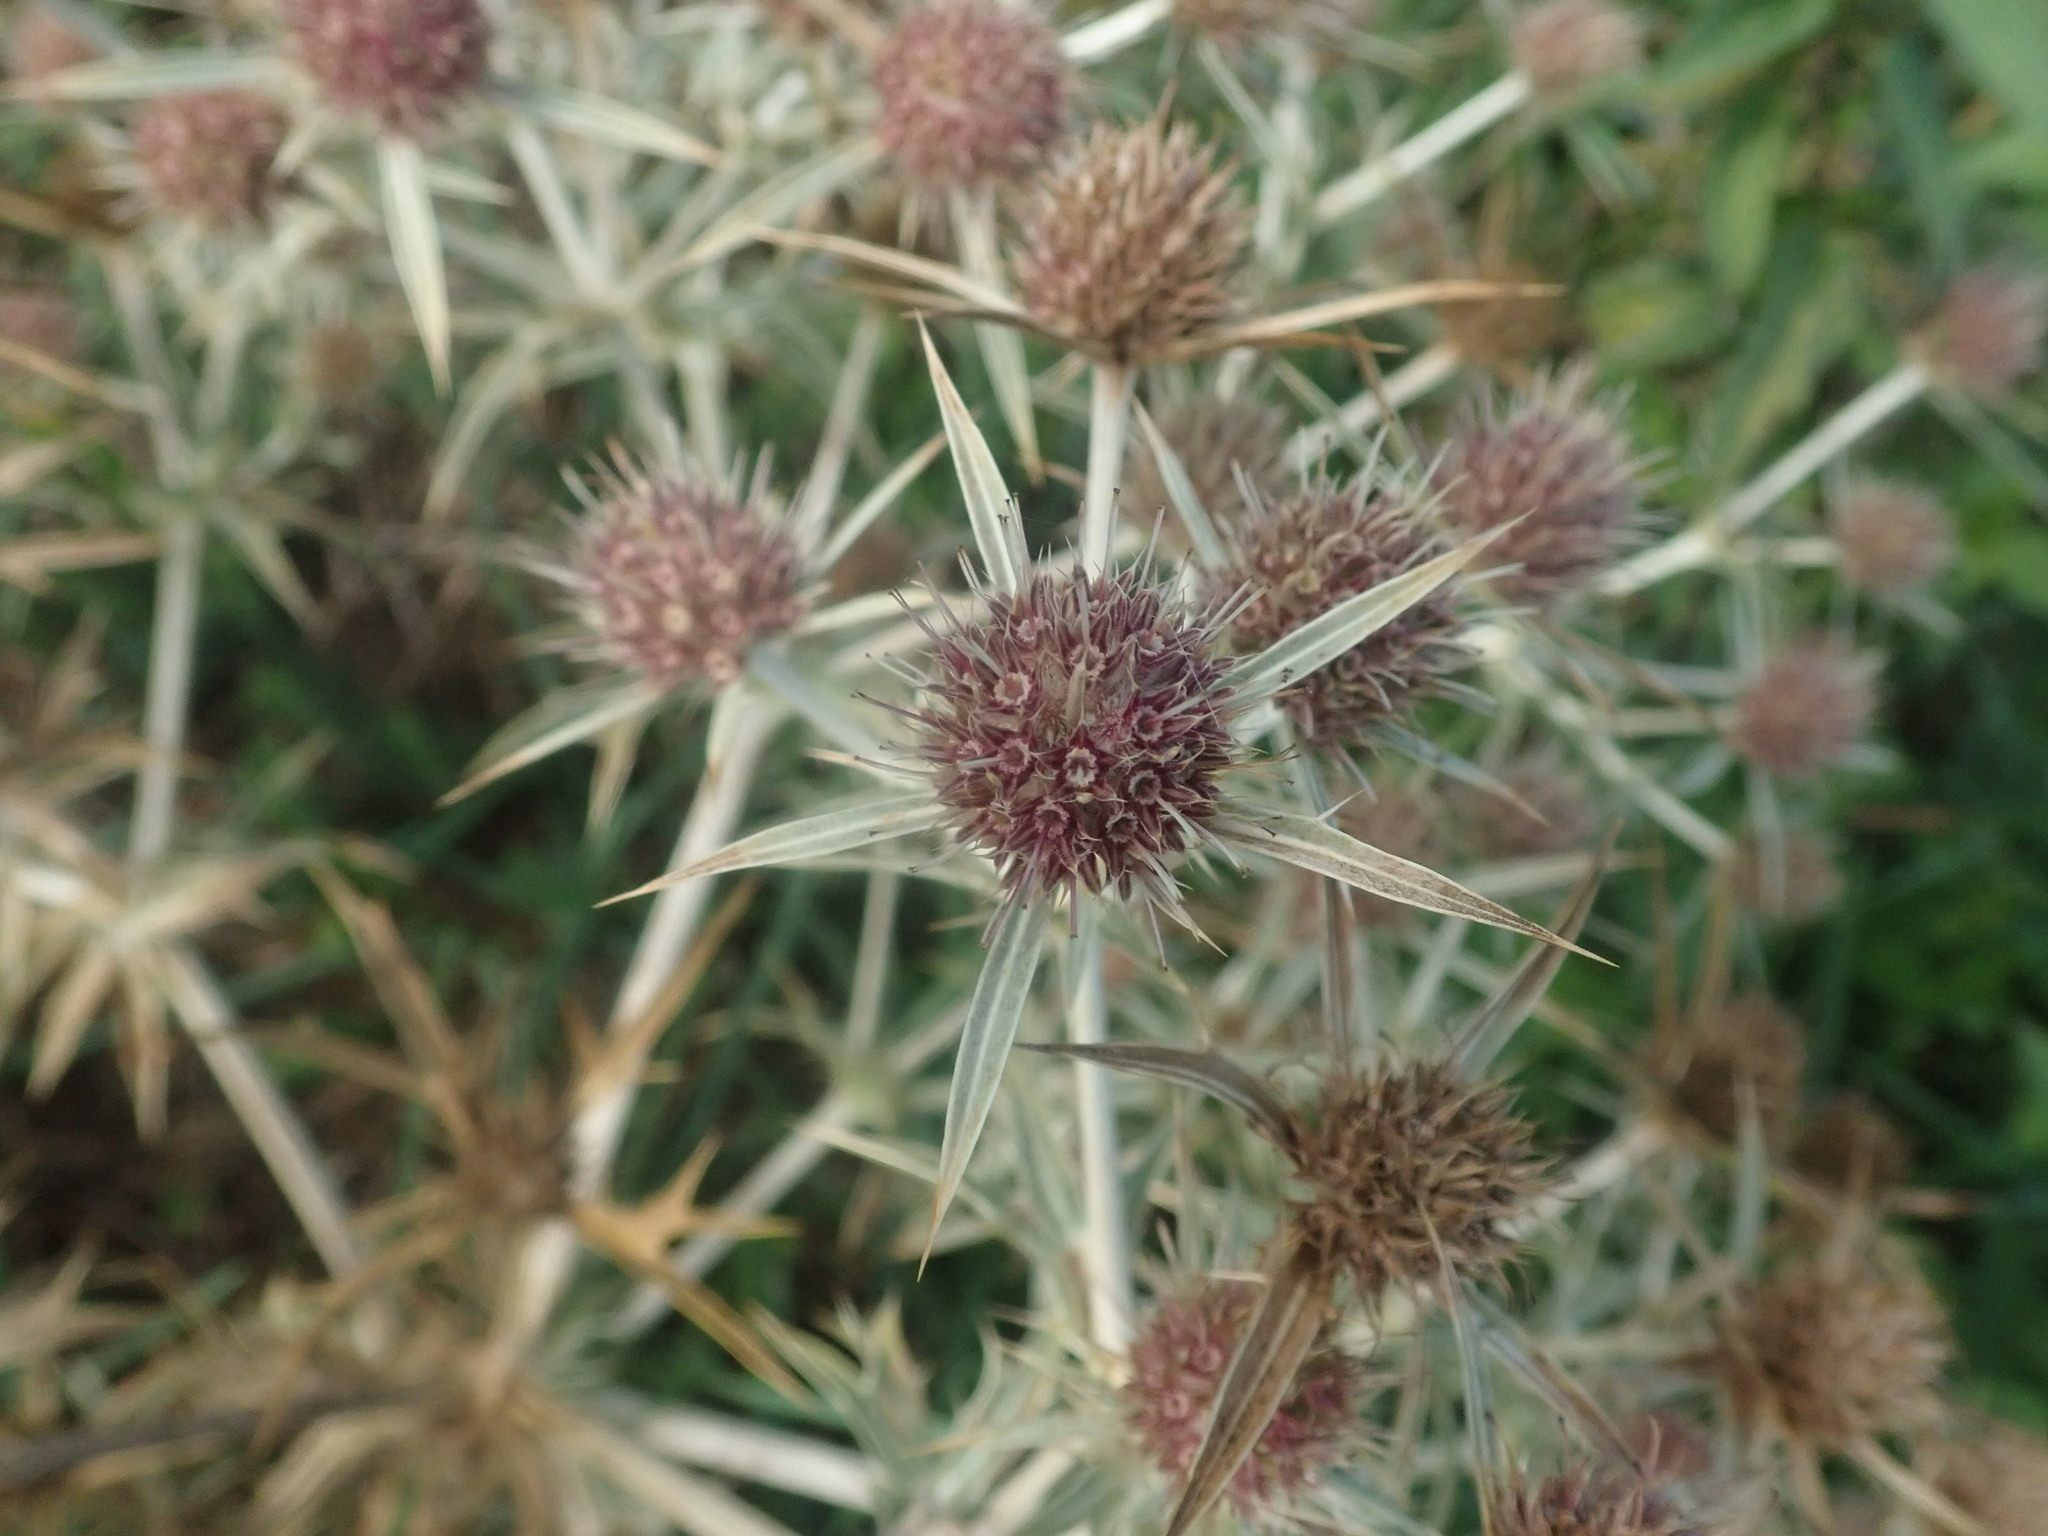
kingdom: Plantae
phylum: Tracheophyta
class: Magnoliopsida
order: Apiales
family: Apiaceae
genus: Eryngium
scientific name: Eryngium campestre
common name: Field eryngo
